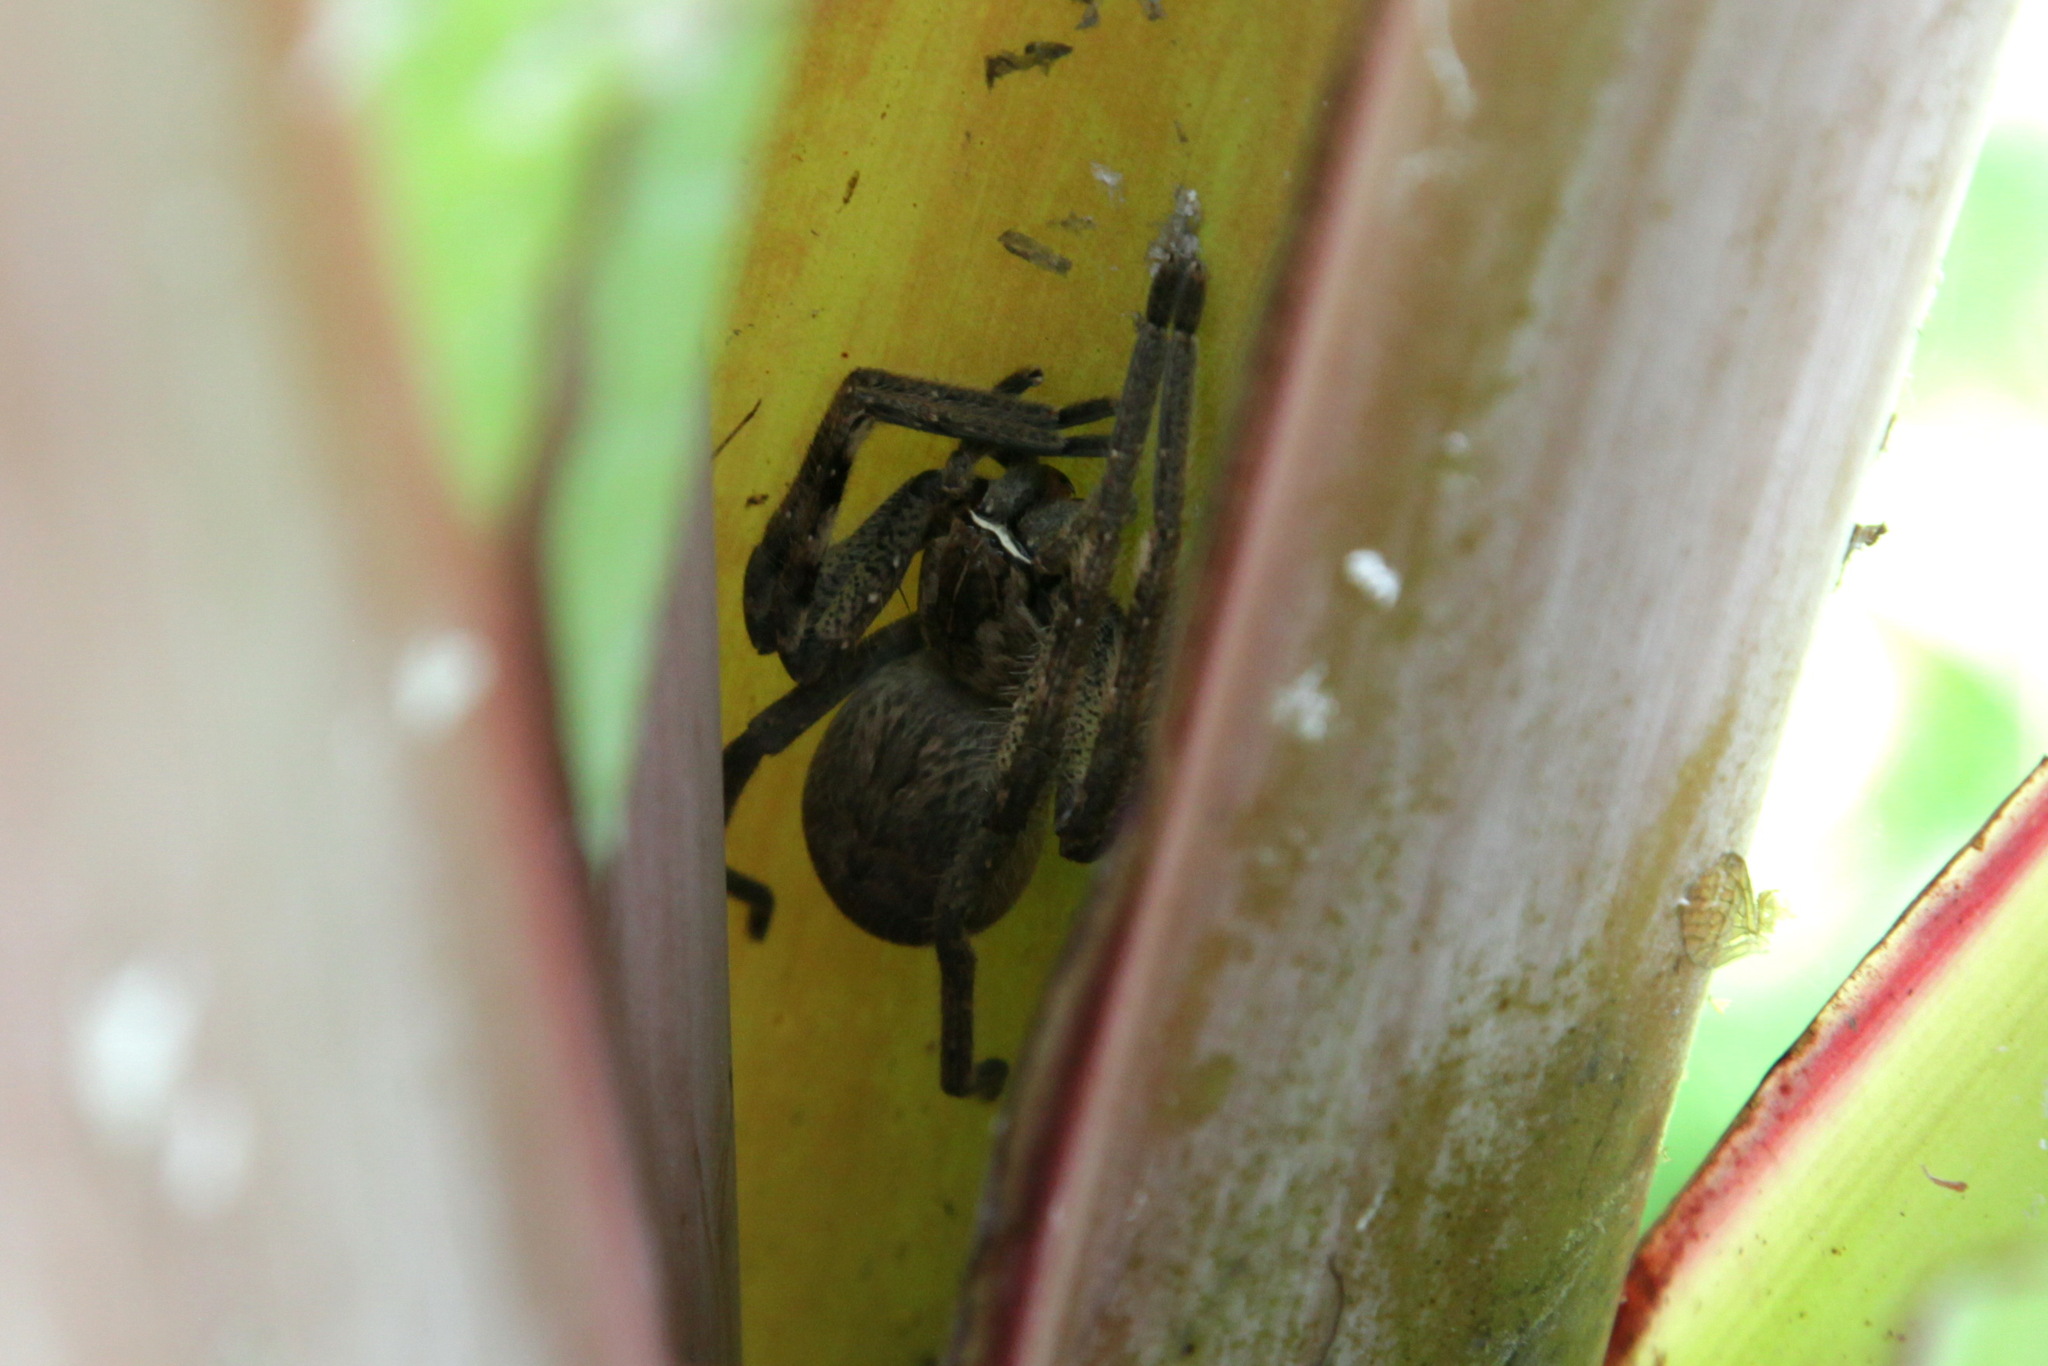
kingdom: Animalia
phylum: Arthropoda
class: Arachnida
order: Araneae
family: Sparassidae
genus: Palystes
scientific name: Palystes superciliosus
